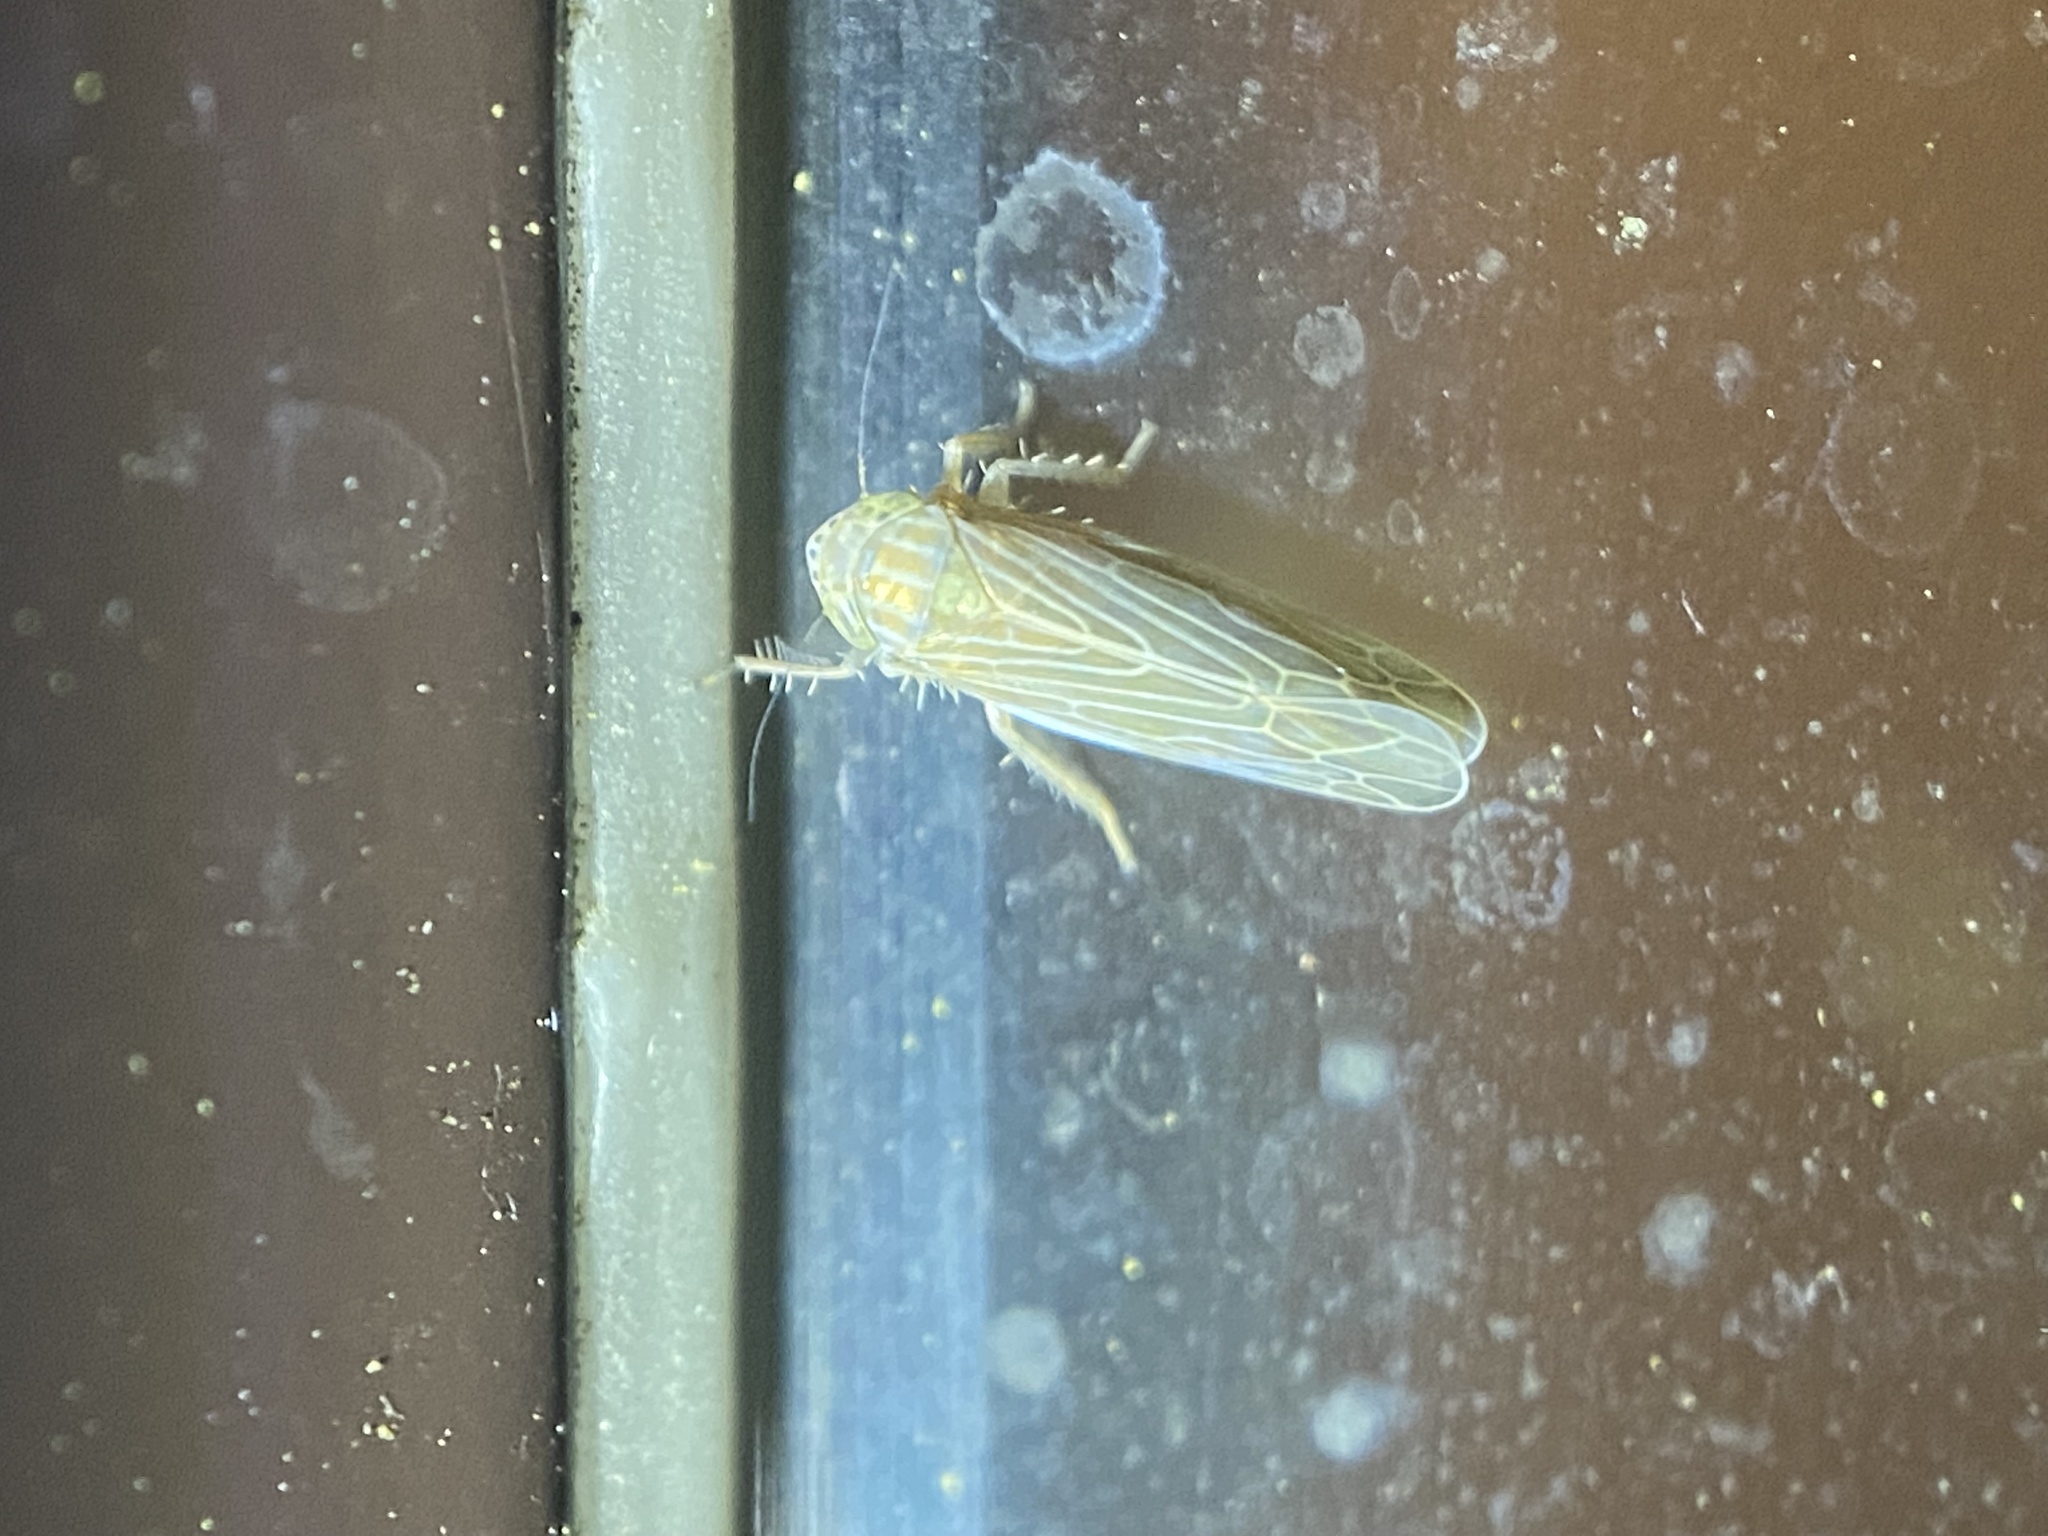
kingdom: Animalia
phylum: Arthropoda
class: Insecta
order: Hemiptera
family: Cicadellidae
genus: Graminella
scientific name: Graminella ampla
